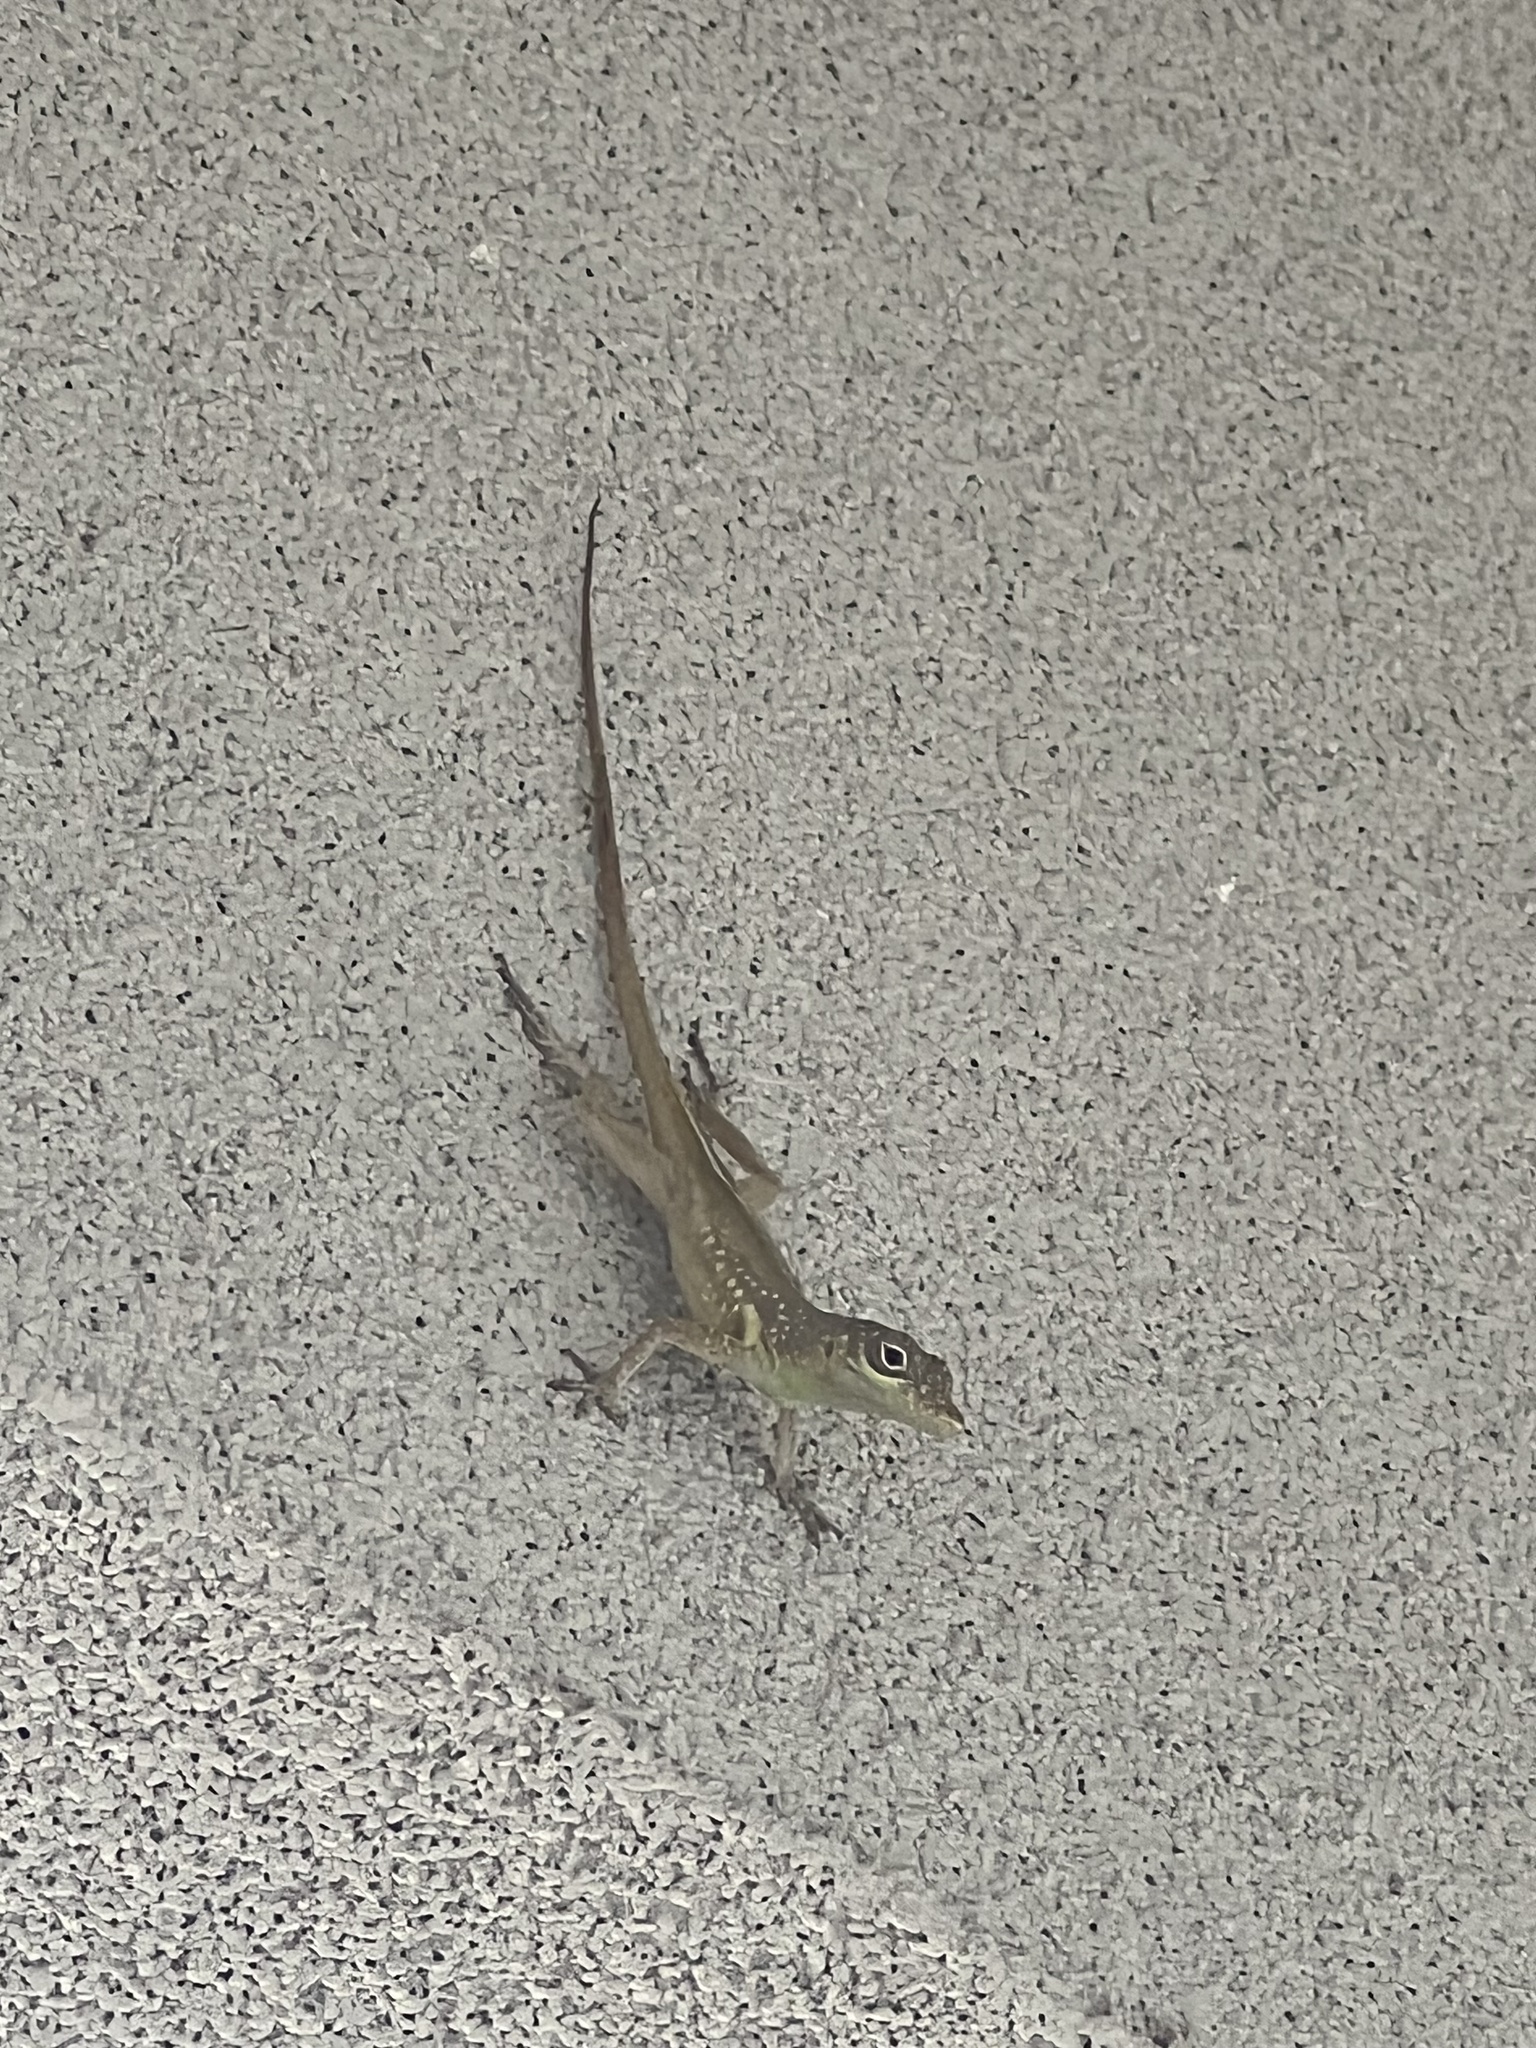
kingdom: Animalia
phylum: Chordata
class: Squamata
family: Dactyloidae
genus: Anolis
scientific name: Anolis conspersus
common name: Grand cayman anole
